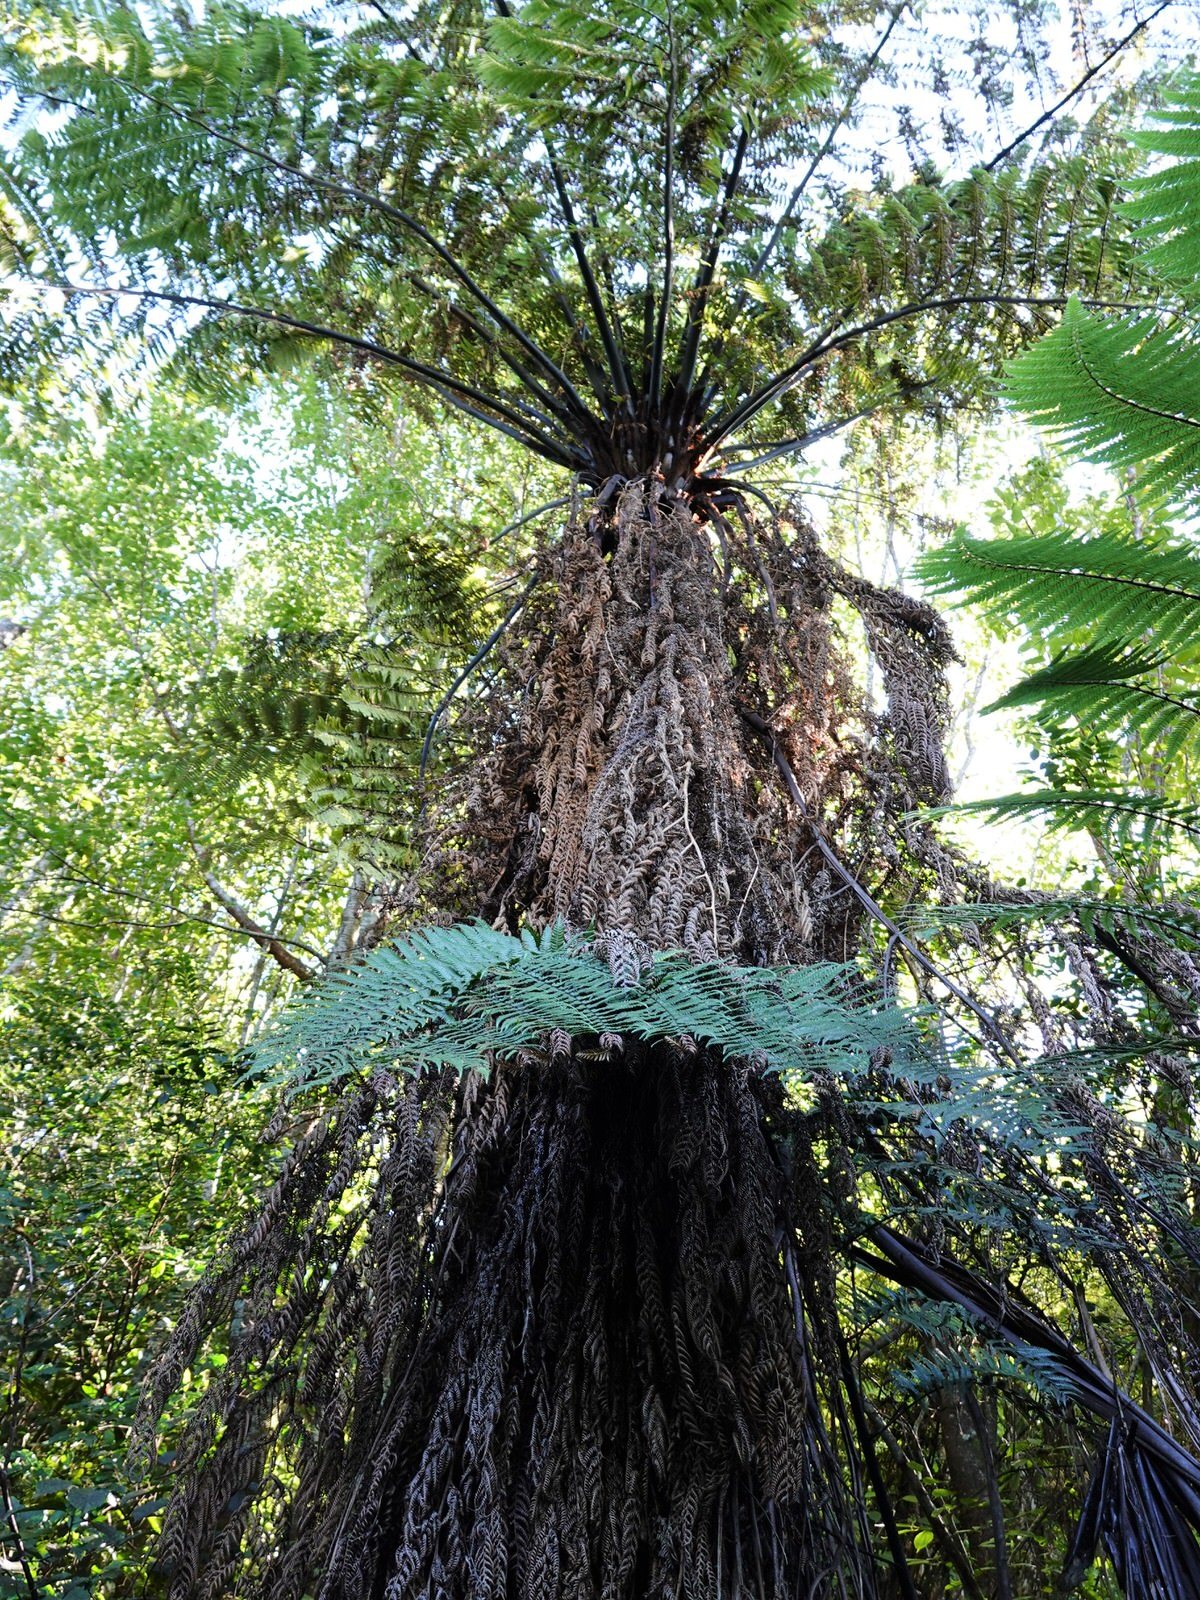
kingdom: Plantae
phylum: Tracheophyta
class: Polypodiopsida
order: Cyatheales
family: Cyatheaceae
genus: Sphaeropteris
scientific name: Sphaeropteris medullaris
